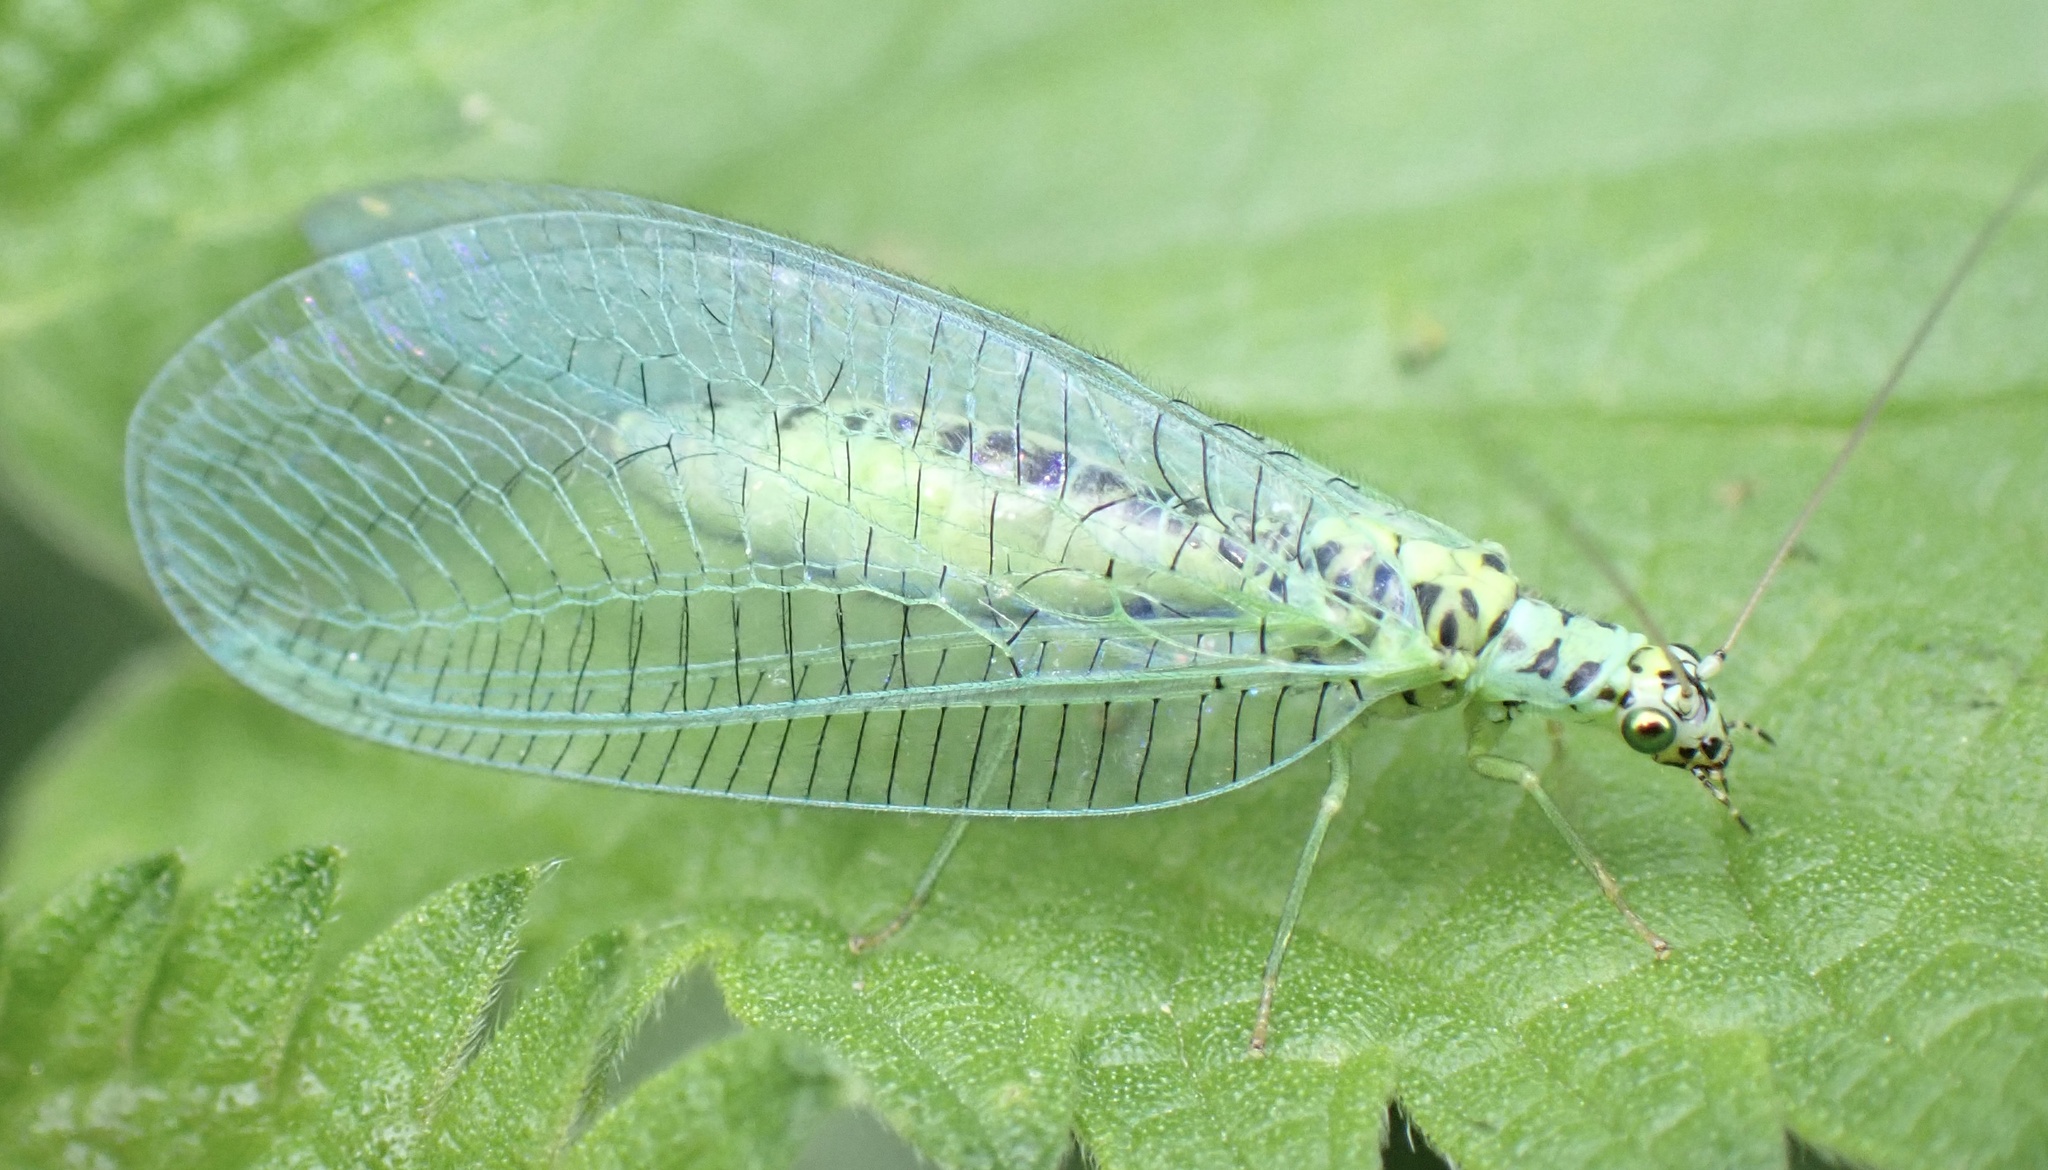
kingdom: Animalia
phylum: Arthropoda
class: Insecta
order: Neuroptera
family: Chrysopidae
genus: Chrysopa
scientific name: Chrysopa perla
